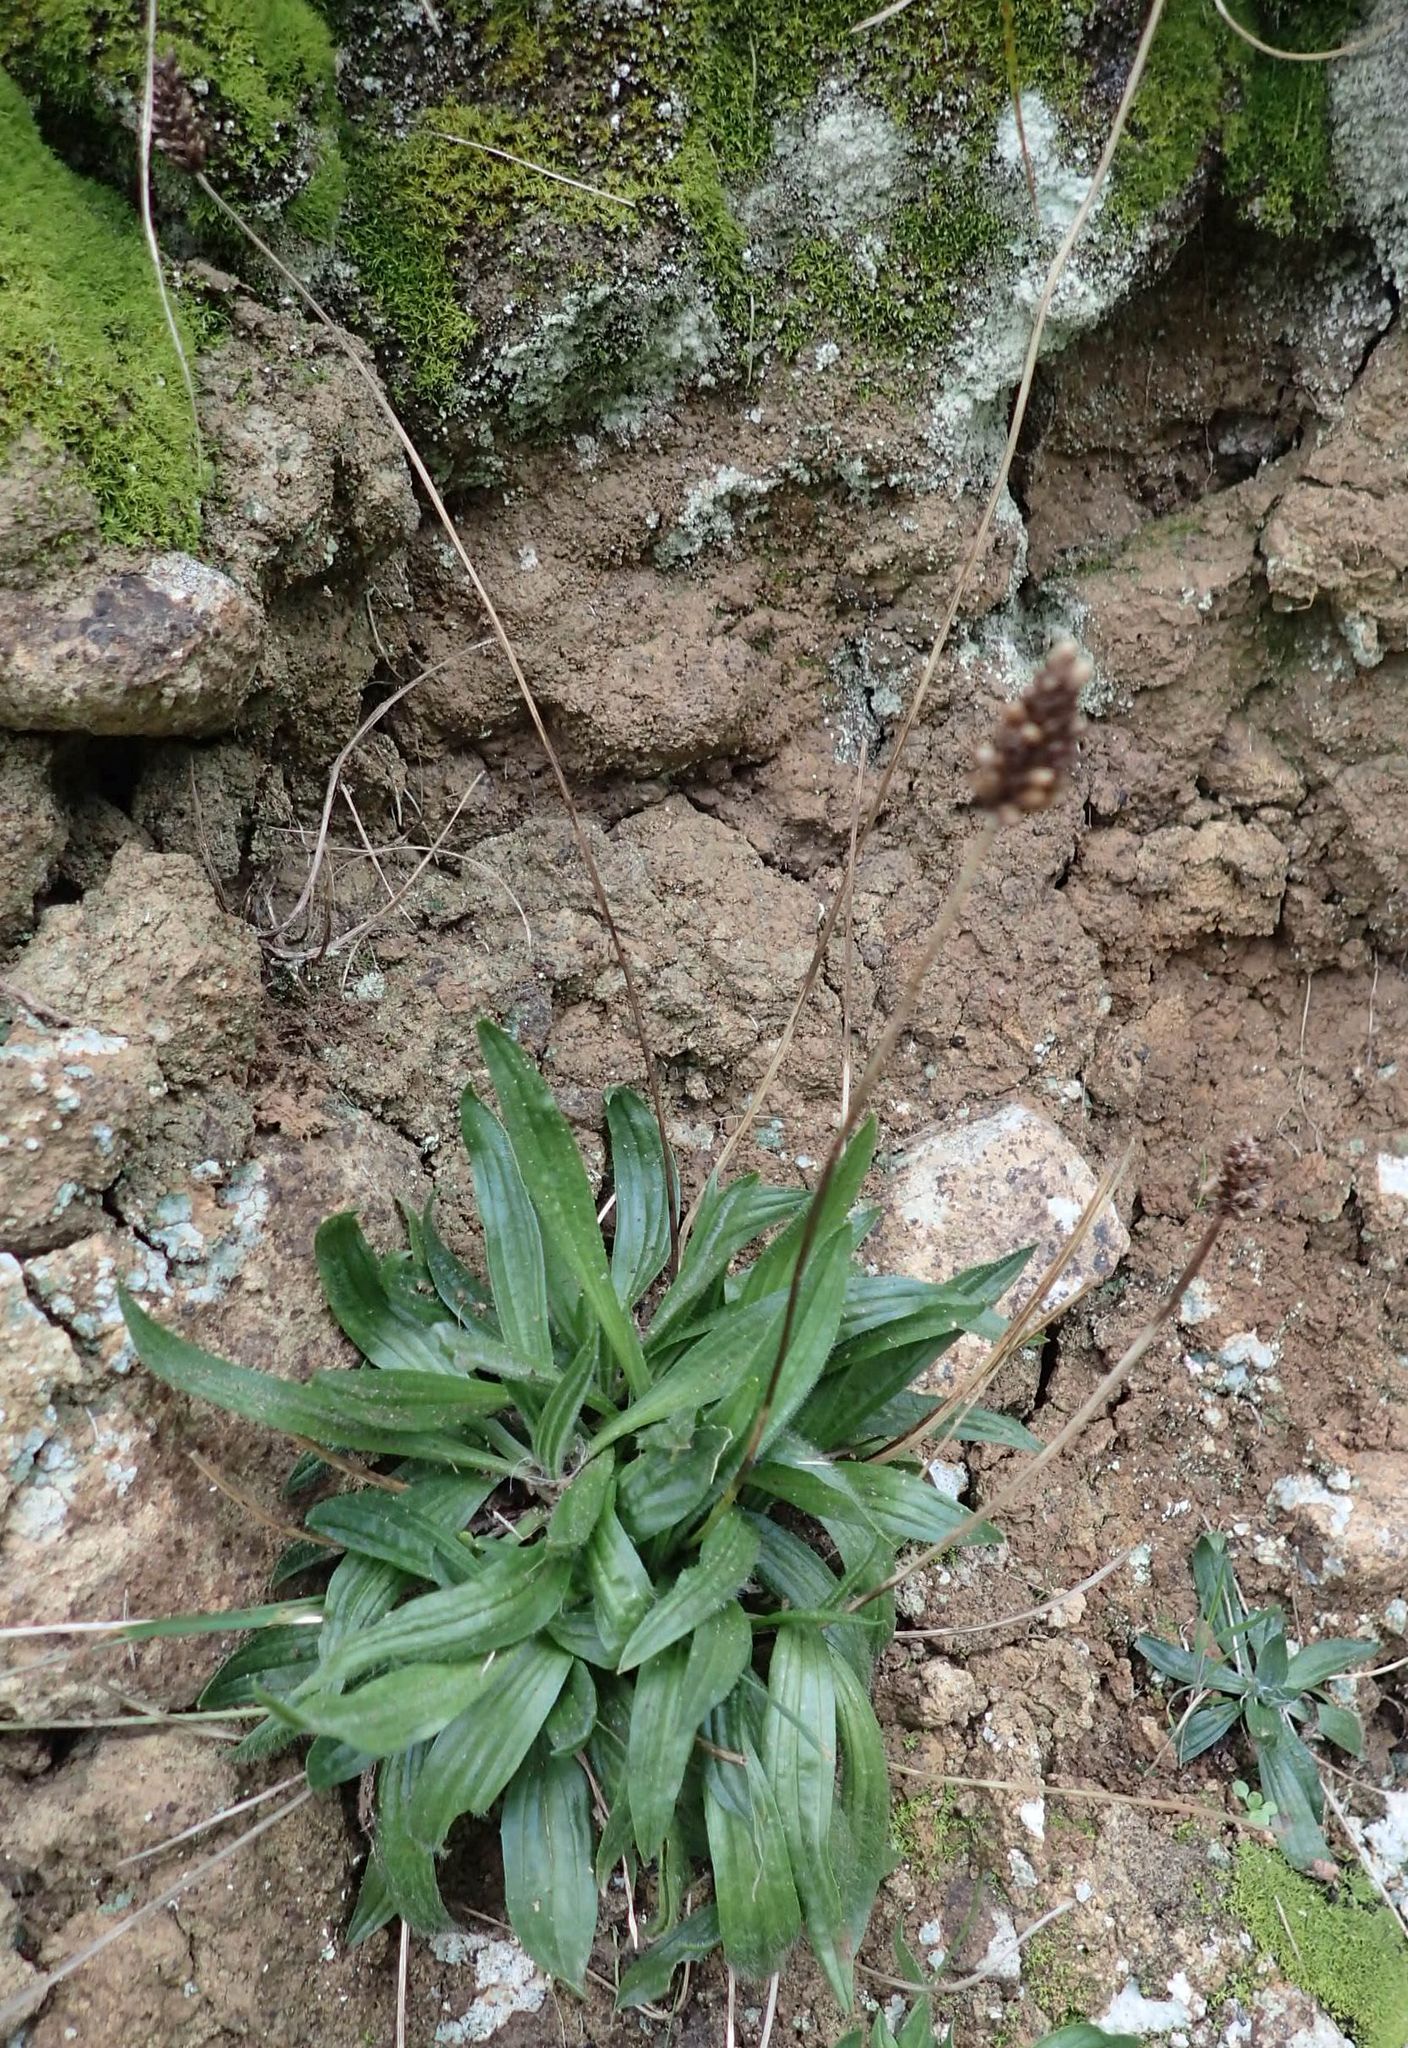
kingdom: Plantae
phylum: Tracheophyta
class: Magnoliopsida
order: Lamiales
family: Plantaginaceae
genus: Plantago
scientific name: Plantago lanceolata
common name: Ribwort plantain
